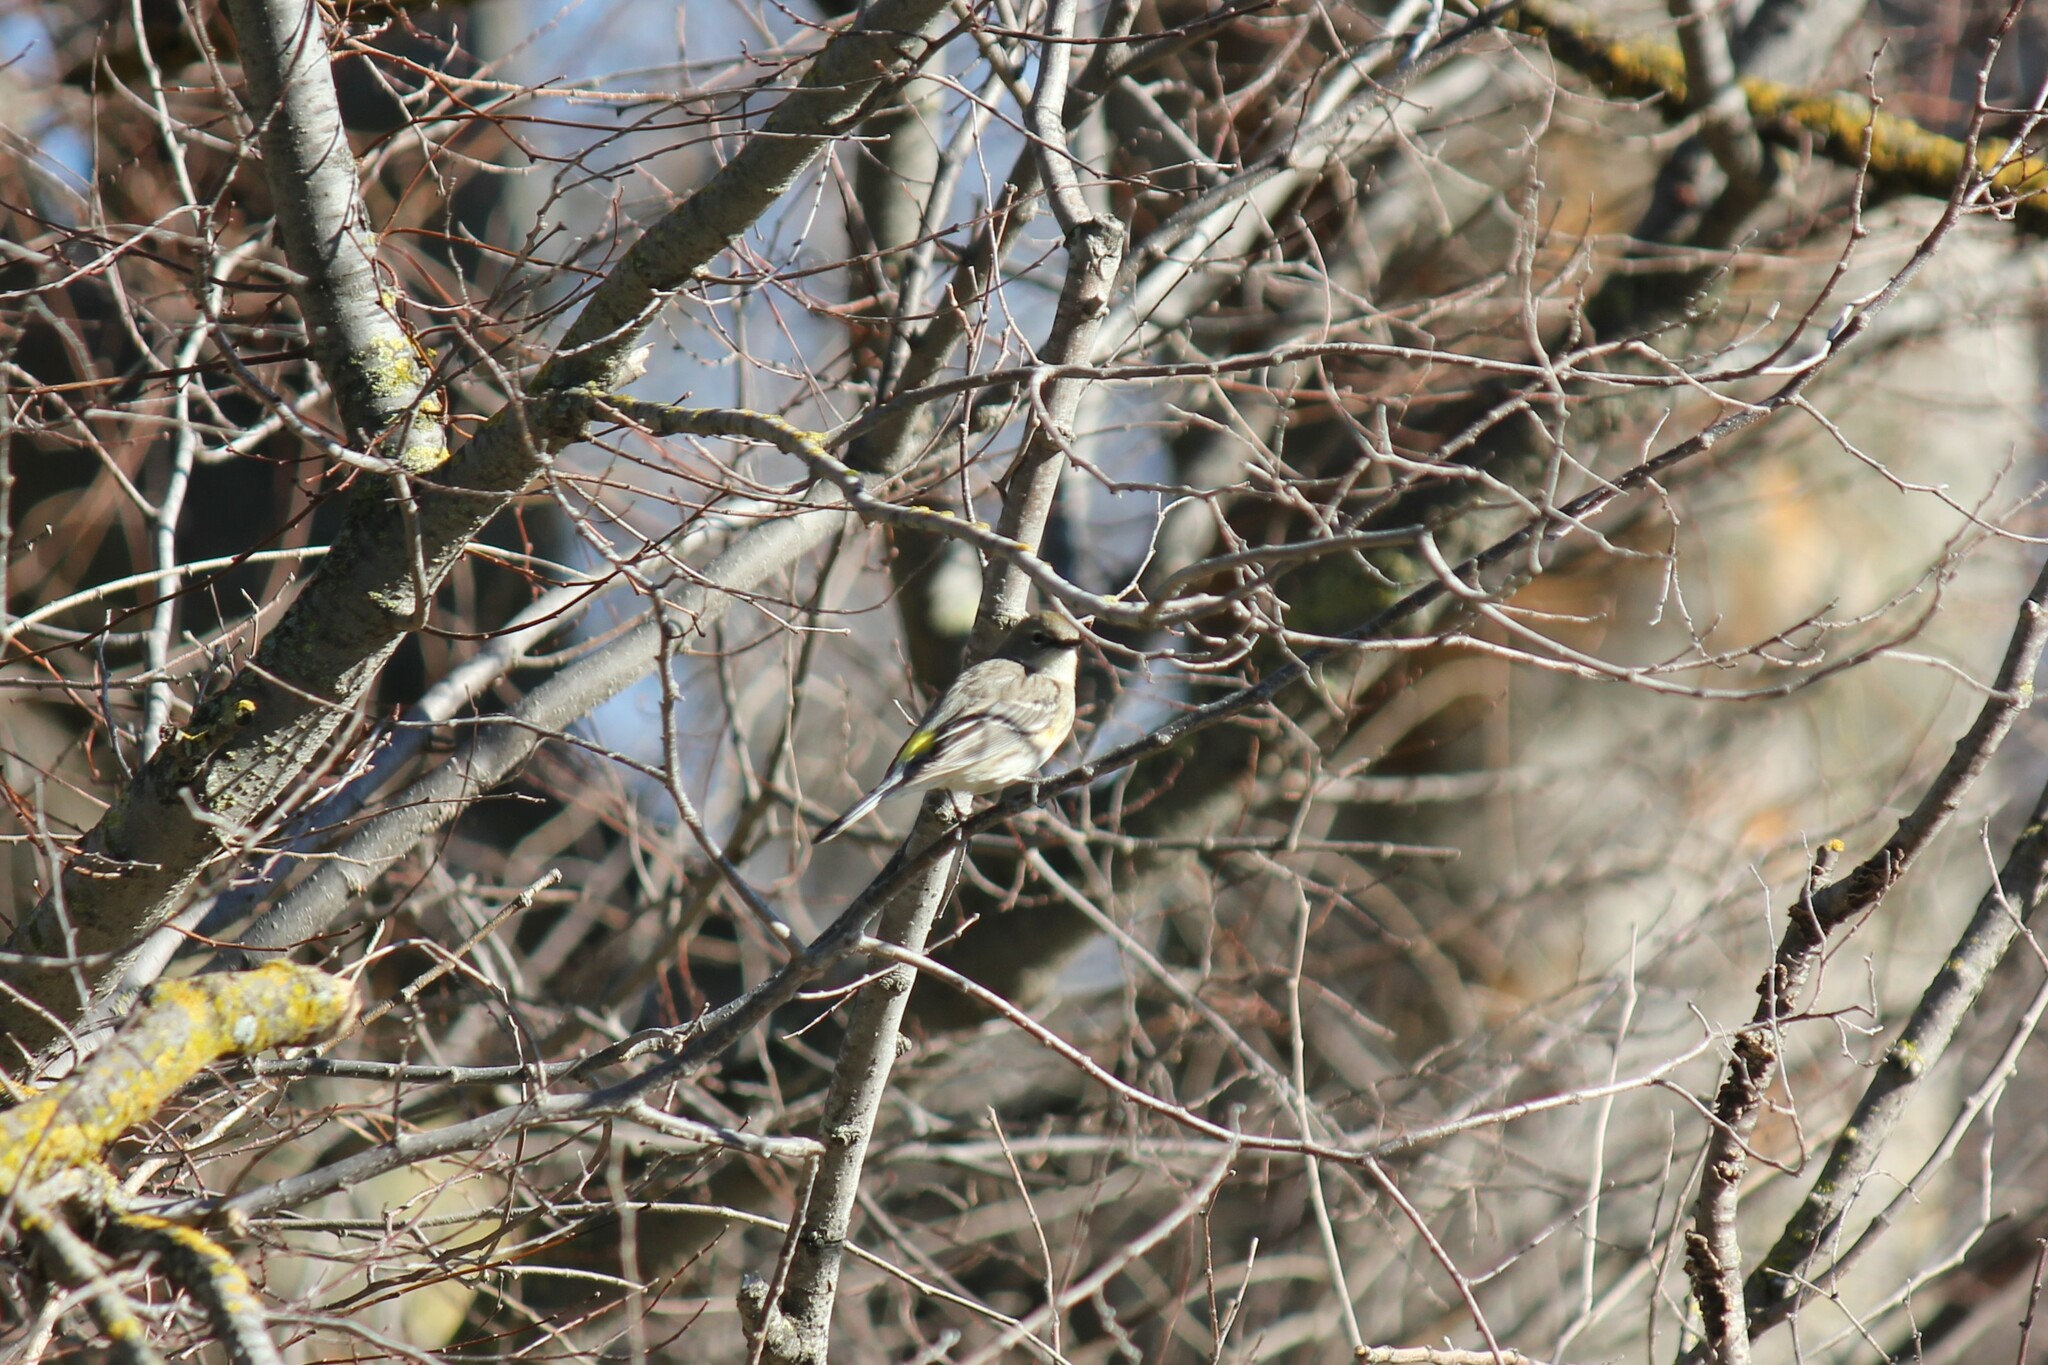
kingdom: Animalia
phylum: Chordata
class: Aves
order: Passeriformes
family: Parulidae
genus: Setophaga
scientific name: Setophaga coronata
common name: Myrtle warbler
